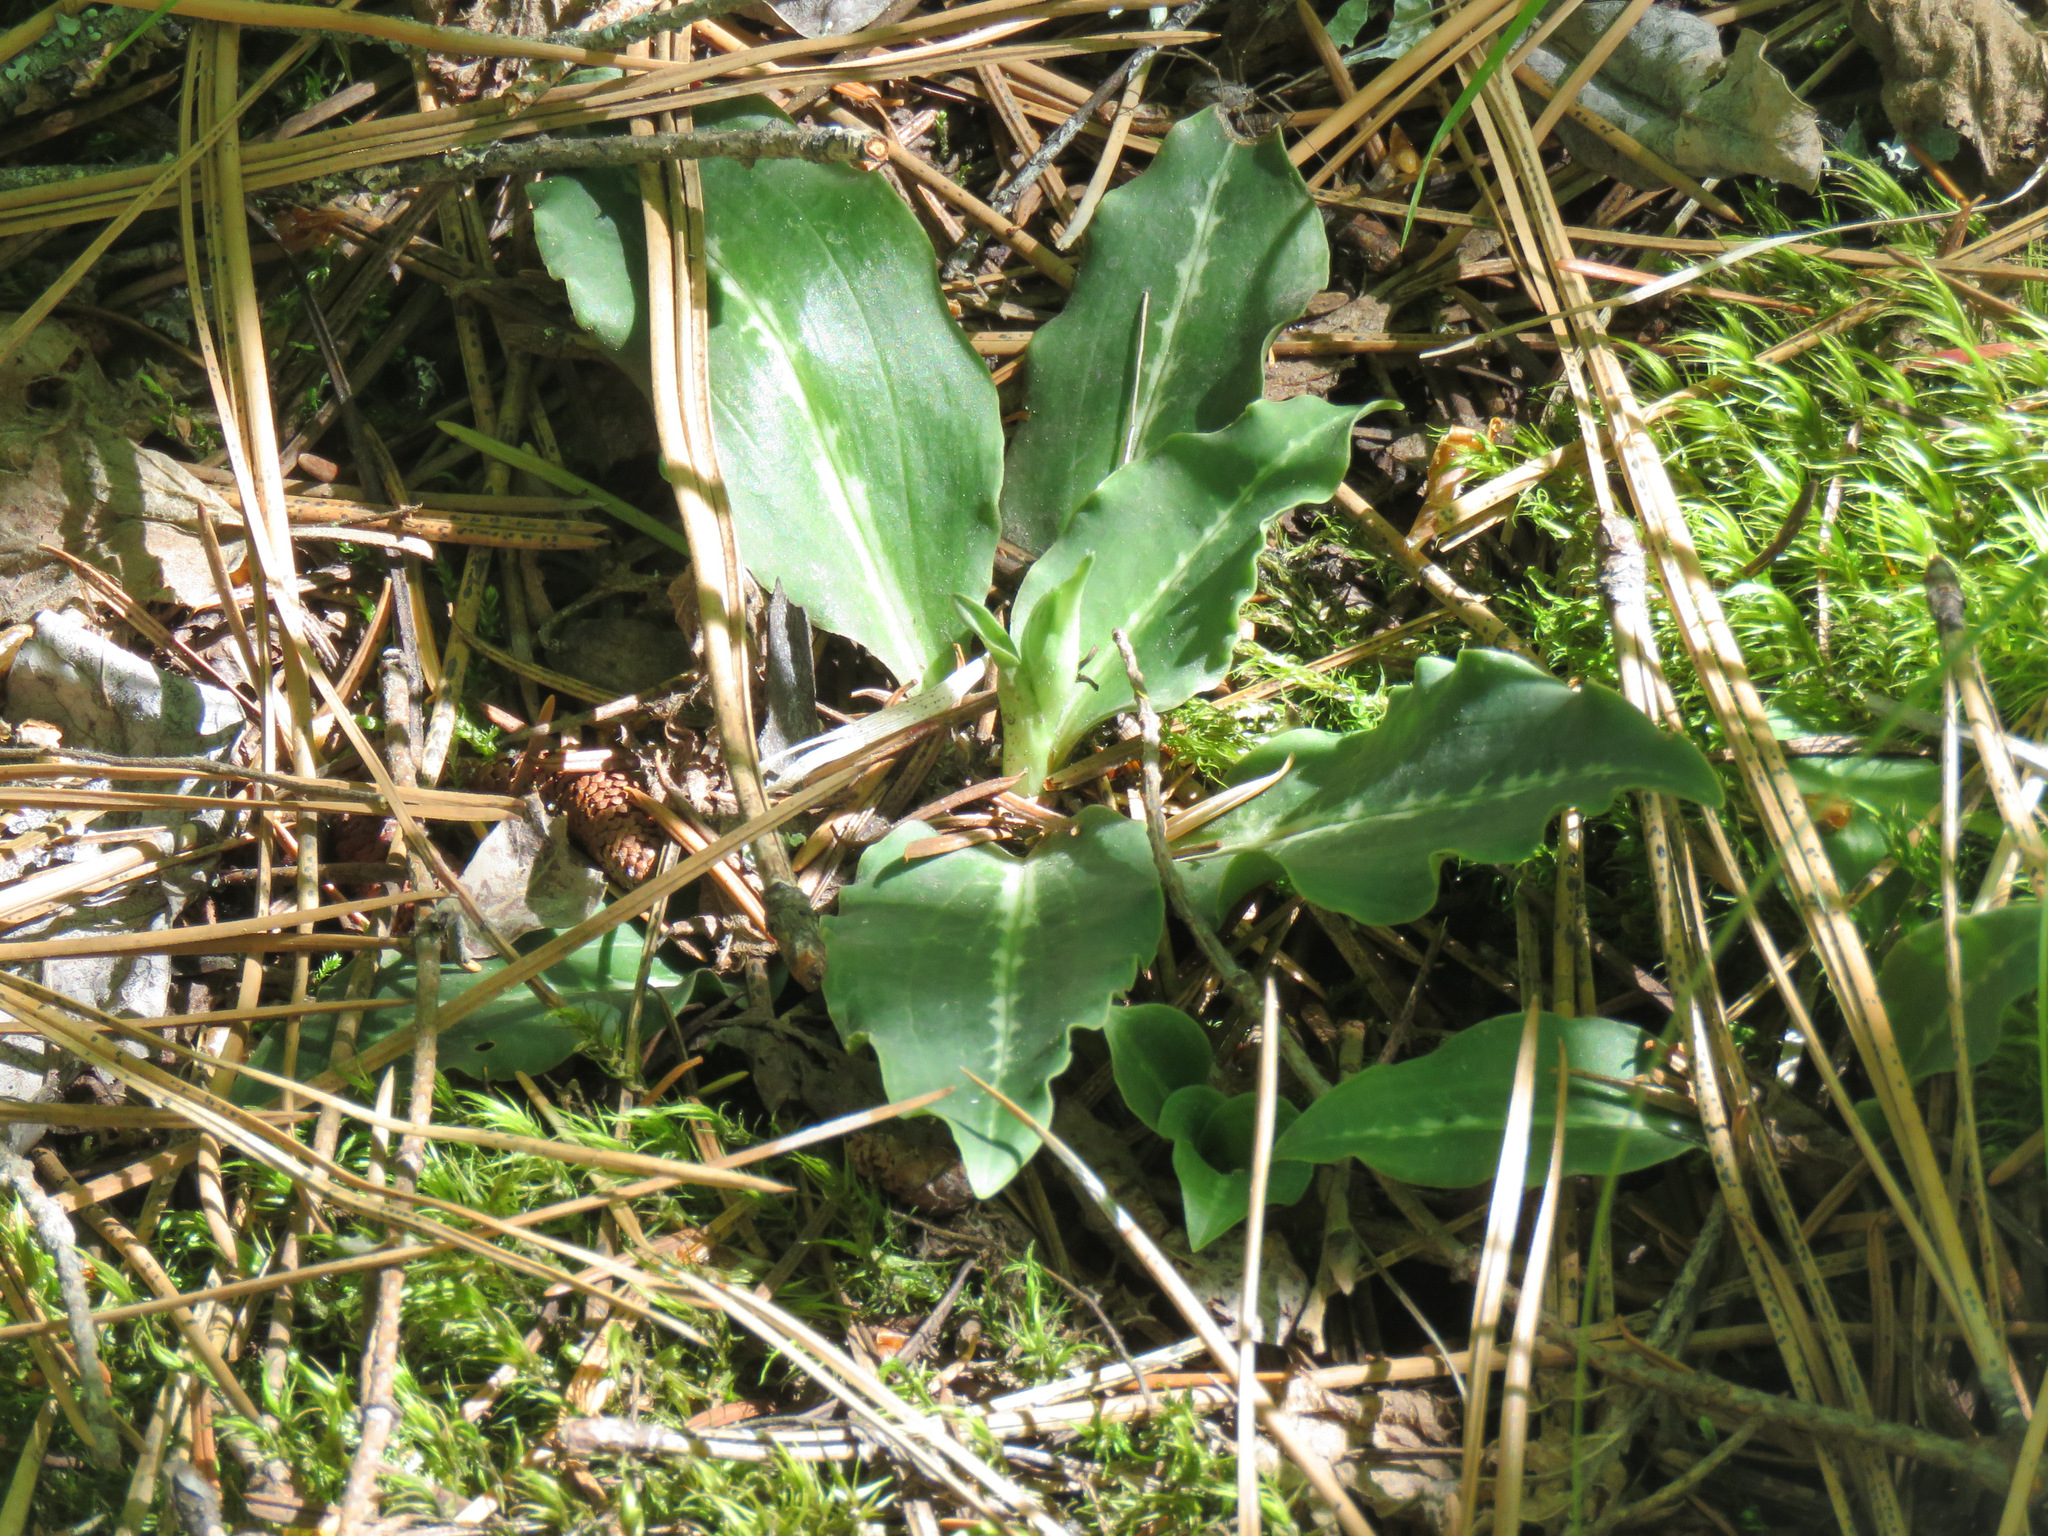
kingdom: Plantae
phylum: Tracheophyta
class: Liliopsida
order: Asparagales
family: Orchidaceae
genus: Goodyera
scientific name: Goodyera oblongifolia
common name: Giant rattlesnake-plantain
